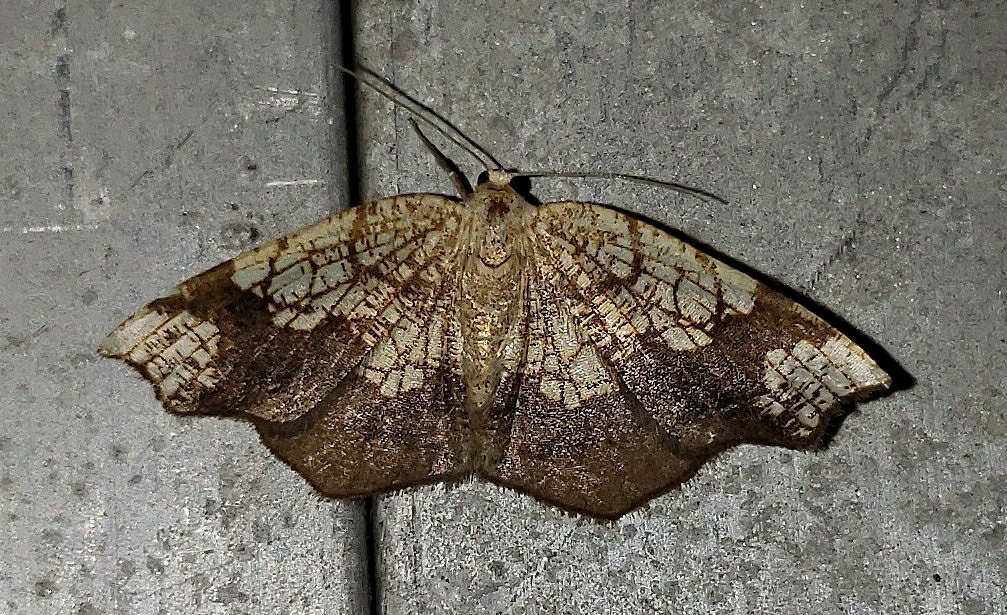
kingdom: Animalia
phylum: Arthropoda
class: Insecta
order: Lepidoptera
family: Geometridae
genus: Nematocampa
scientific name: Nematocampa resistaria
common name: Horned spanworm moth
